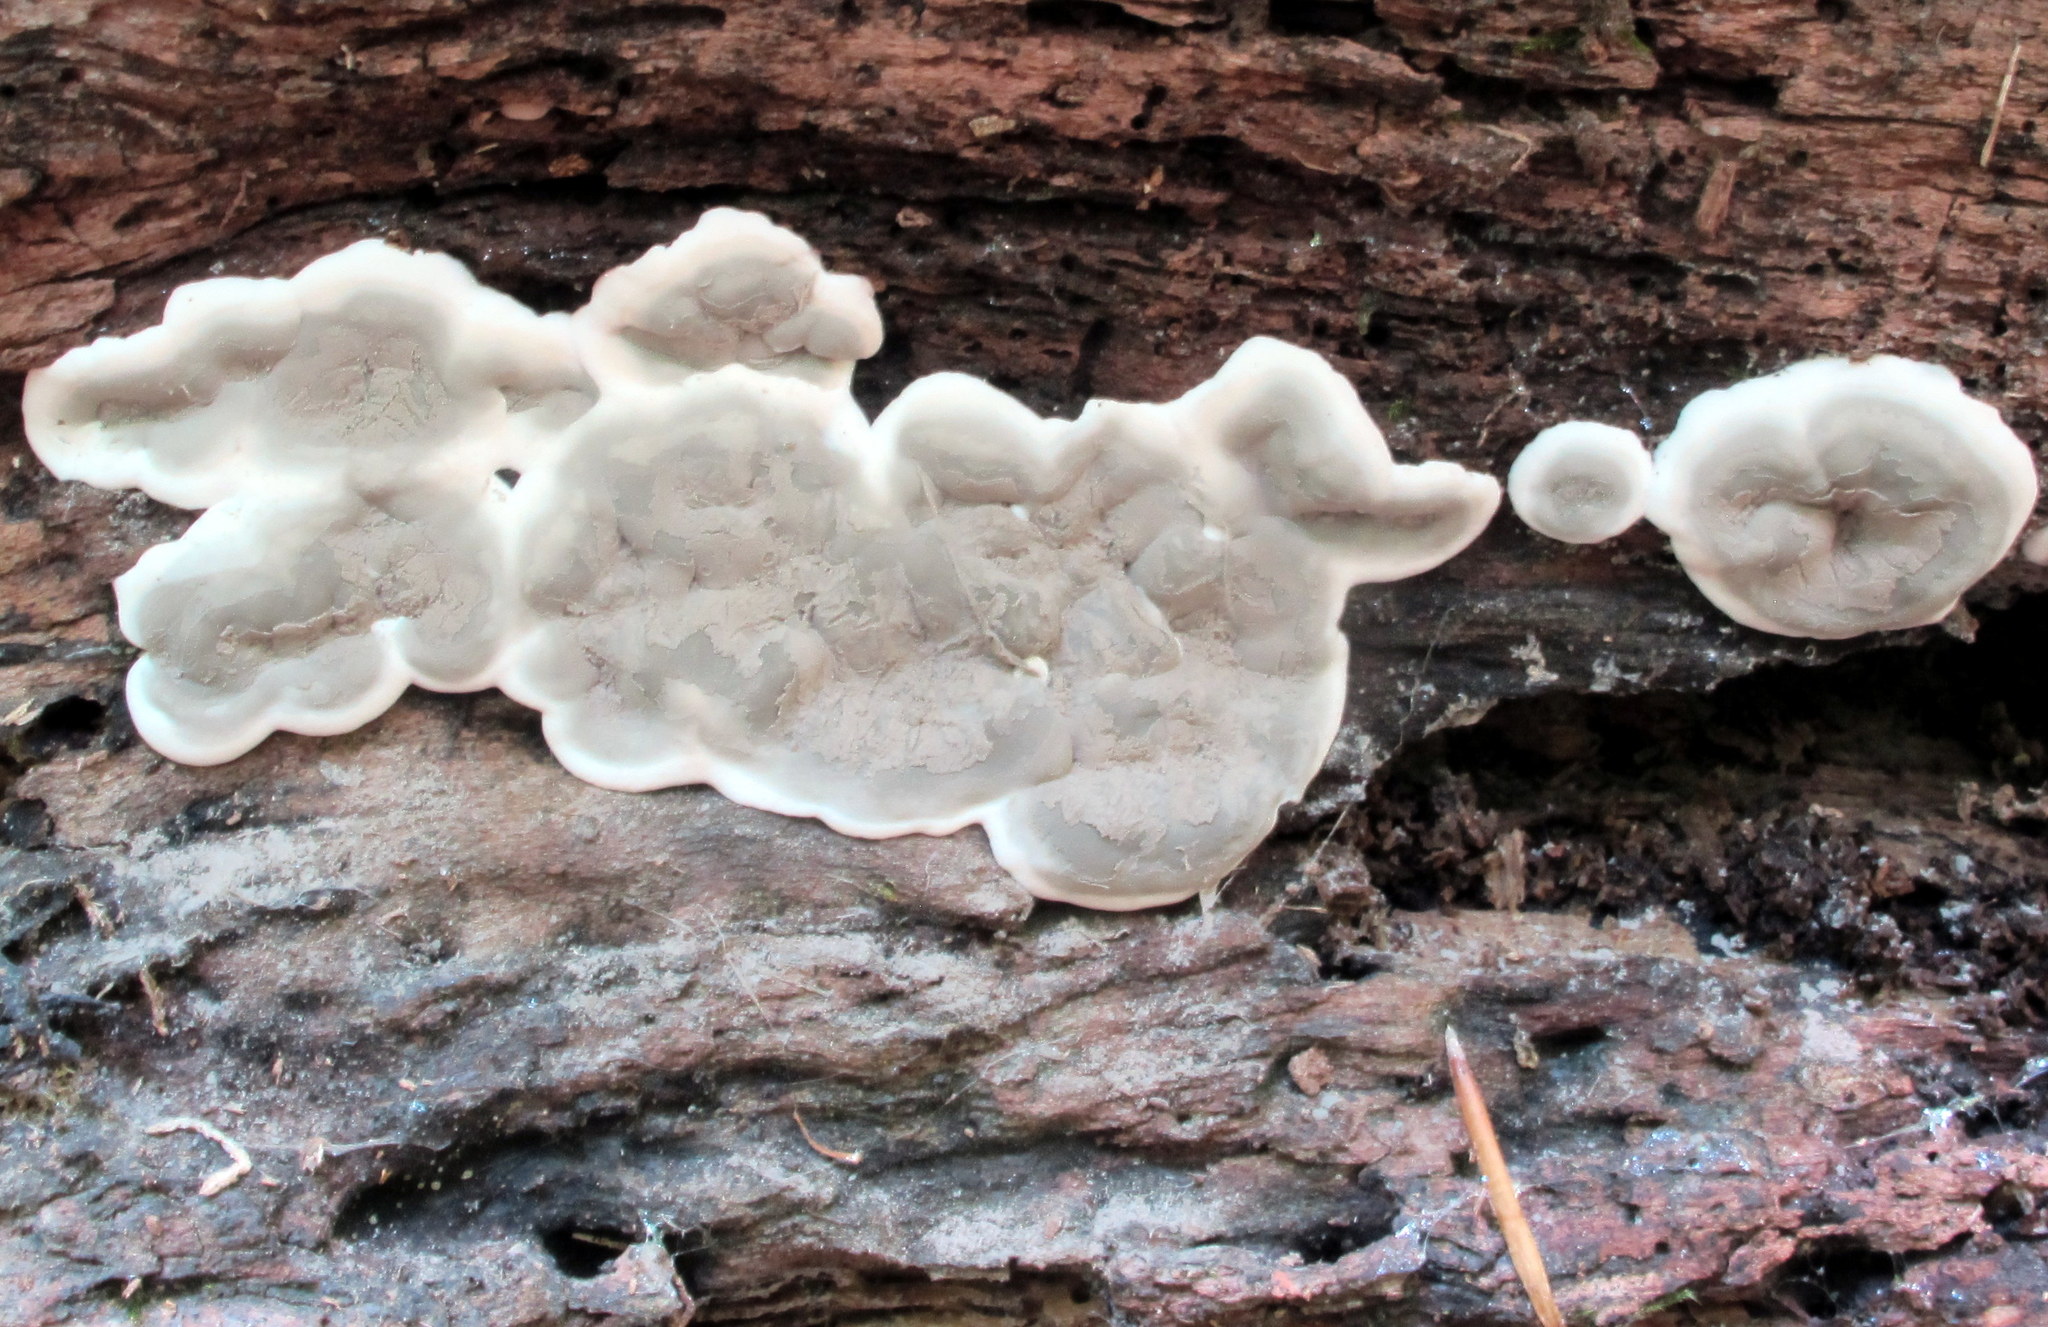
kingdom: Fungi
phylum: Ascomycota
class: Sordariomycetes
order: Xylariales
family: Xylariaceae
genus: Kretzschmaria
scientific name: Kretzschmaria deusta
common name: Brittle cinder
